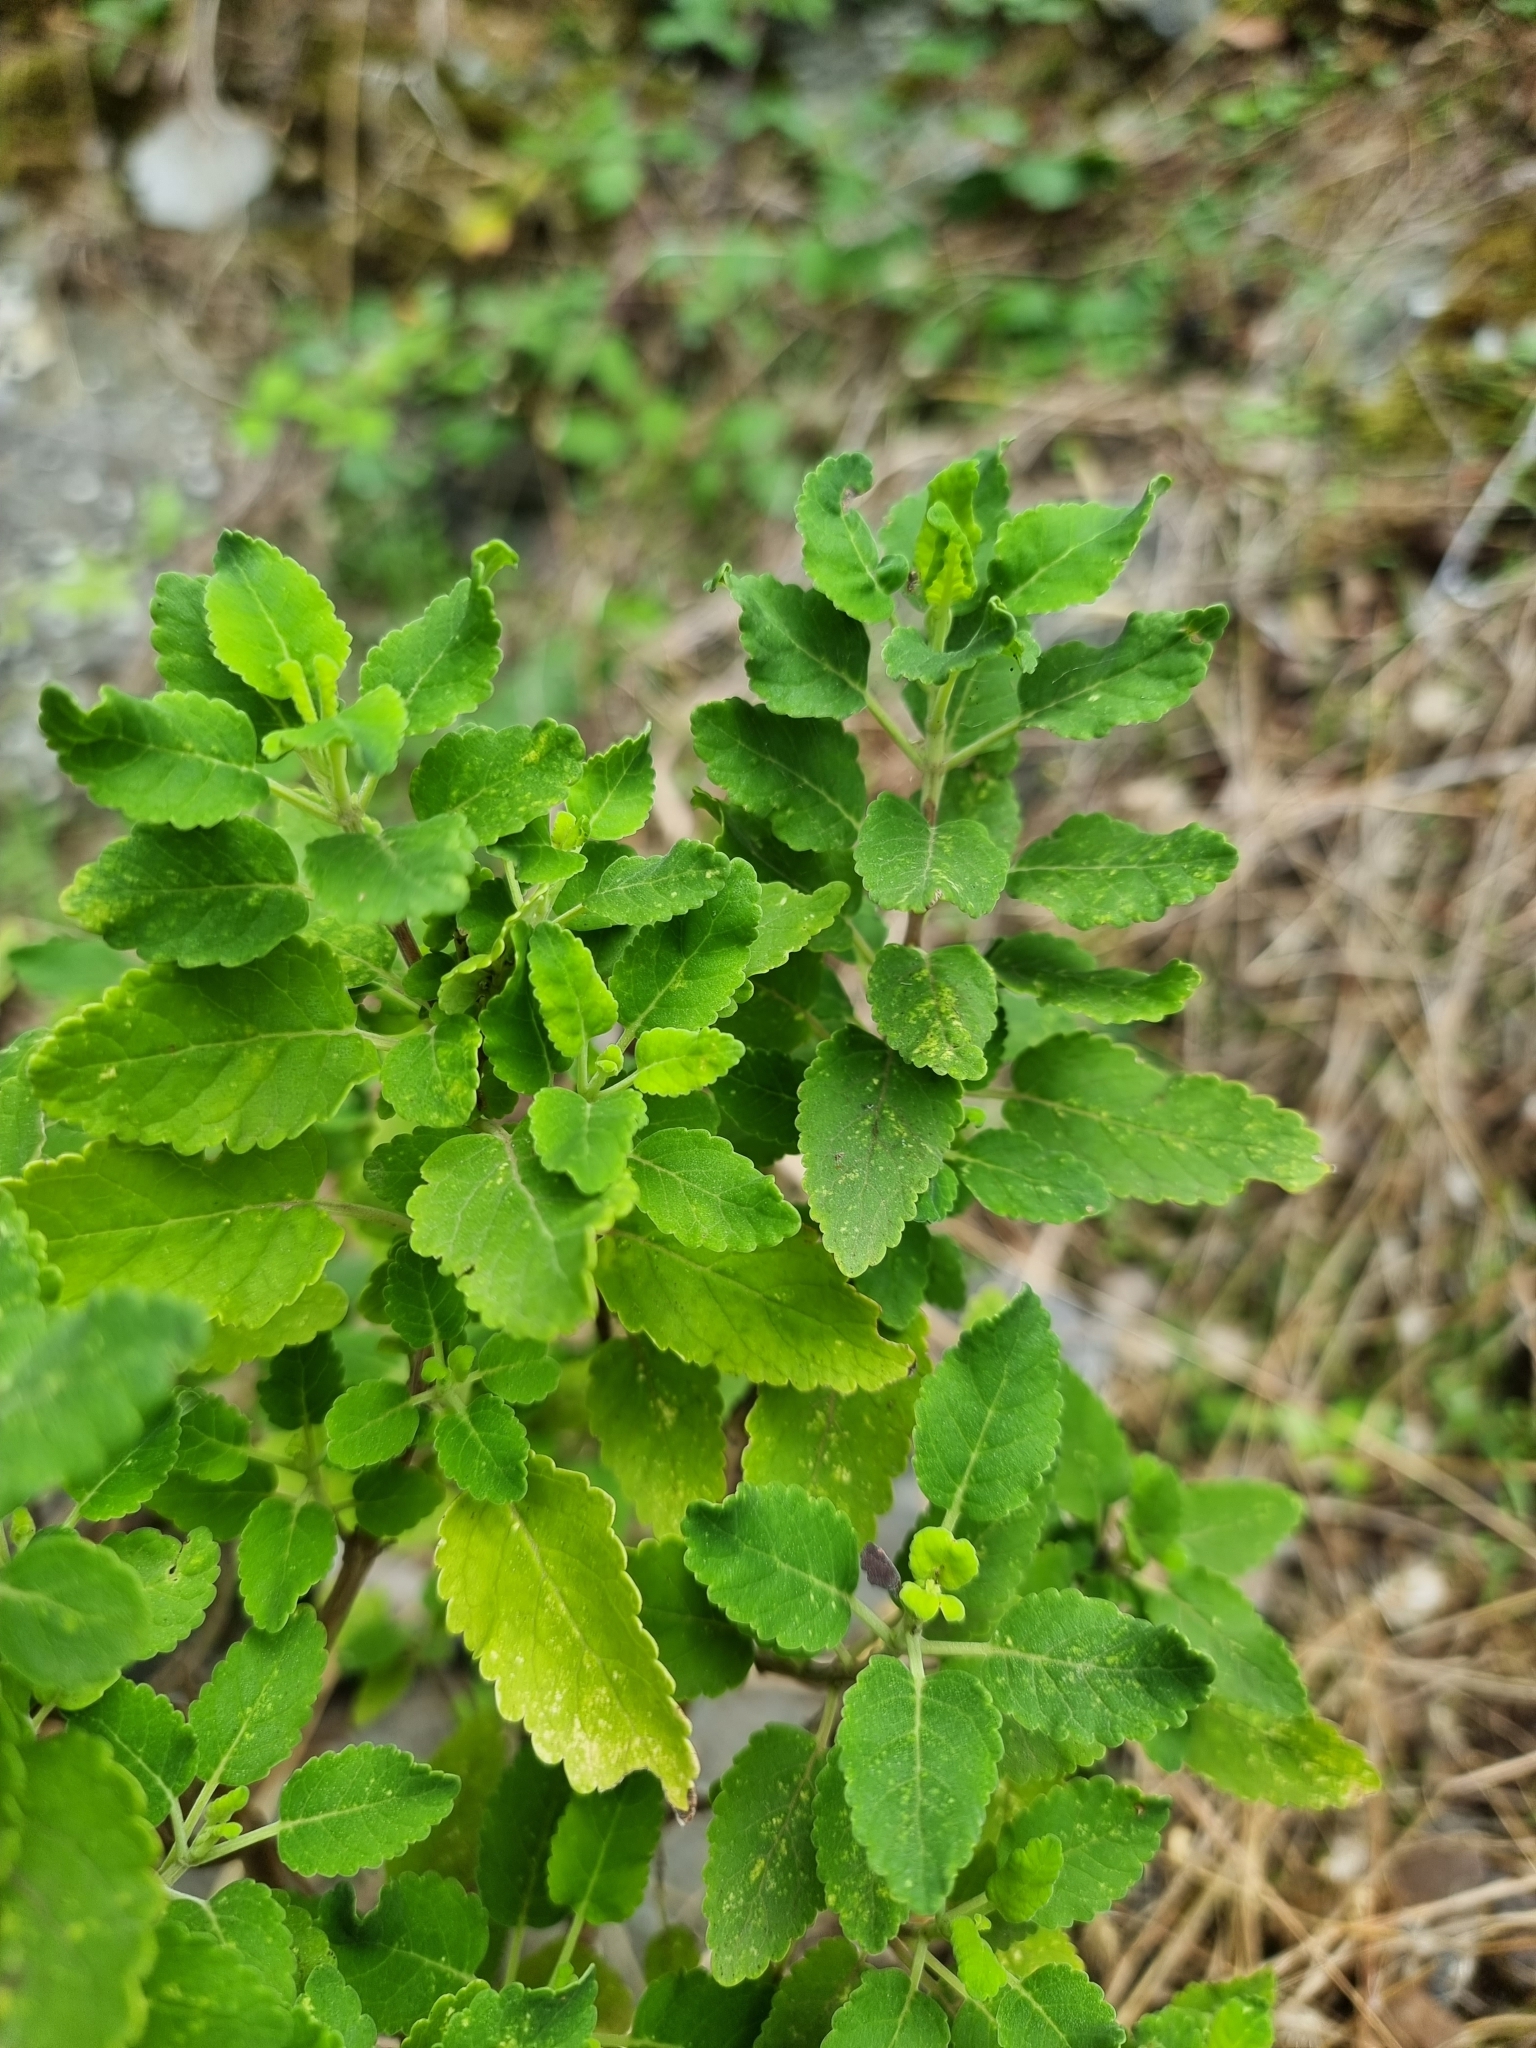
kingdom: Plantae
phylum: Tracheophyta
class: Magnoliopsida
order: Lamiales
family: Lamiaceae
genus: Bystropogon
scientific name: Bystropogon punctatus
